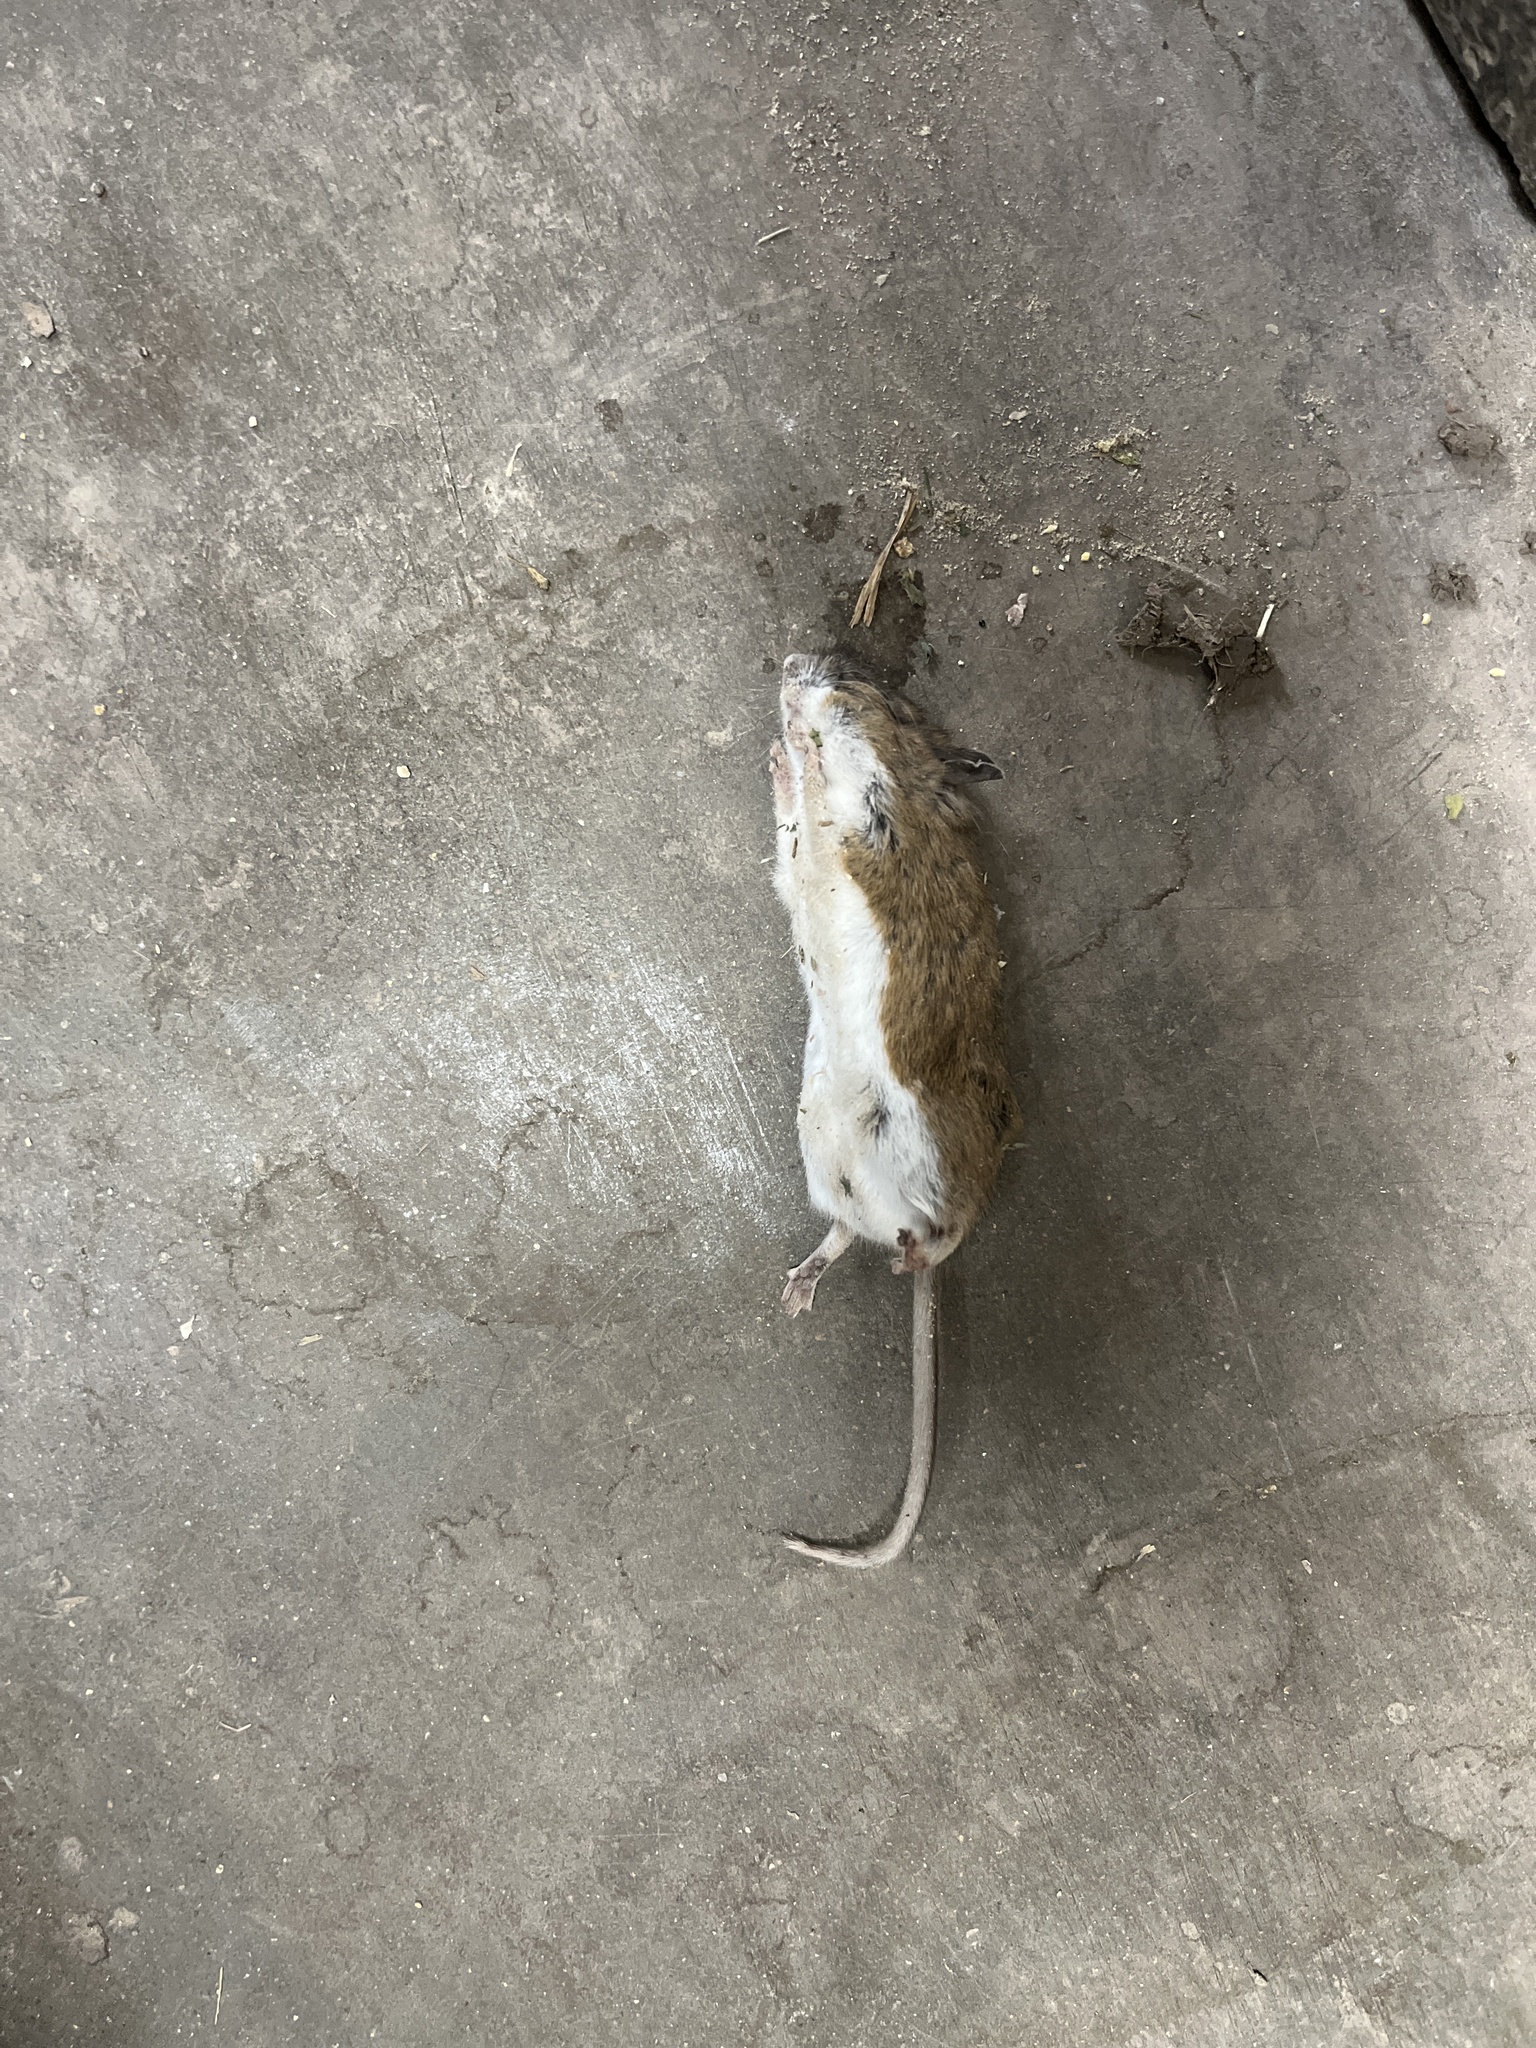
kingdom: Animalia
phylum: Chordata
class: Mammalia
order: Rodentia
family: Cricetidae
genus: Peromyscus
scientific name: Peromyscus leucopus
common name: White-footed deermouse
